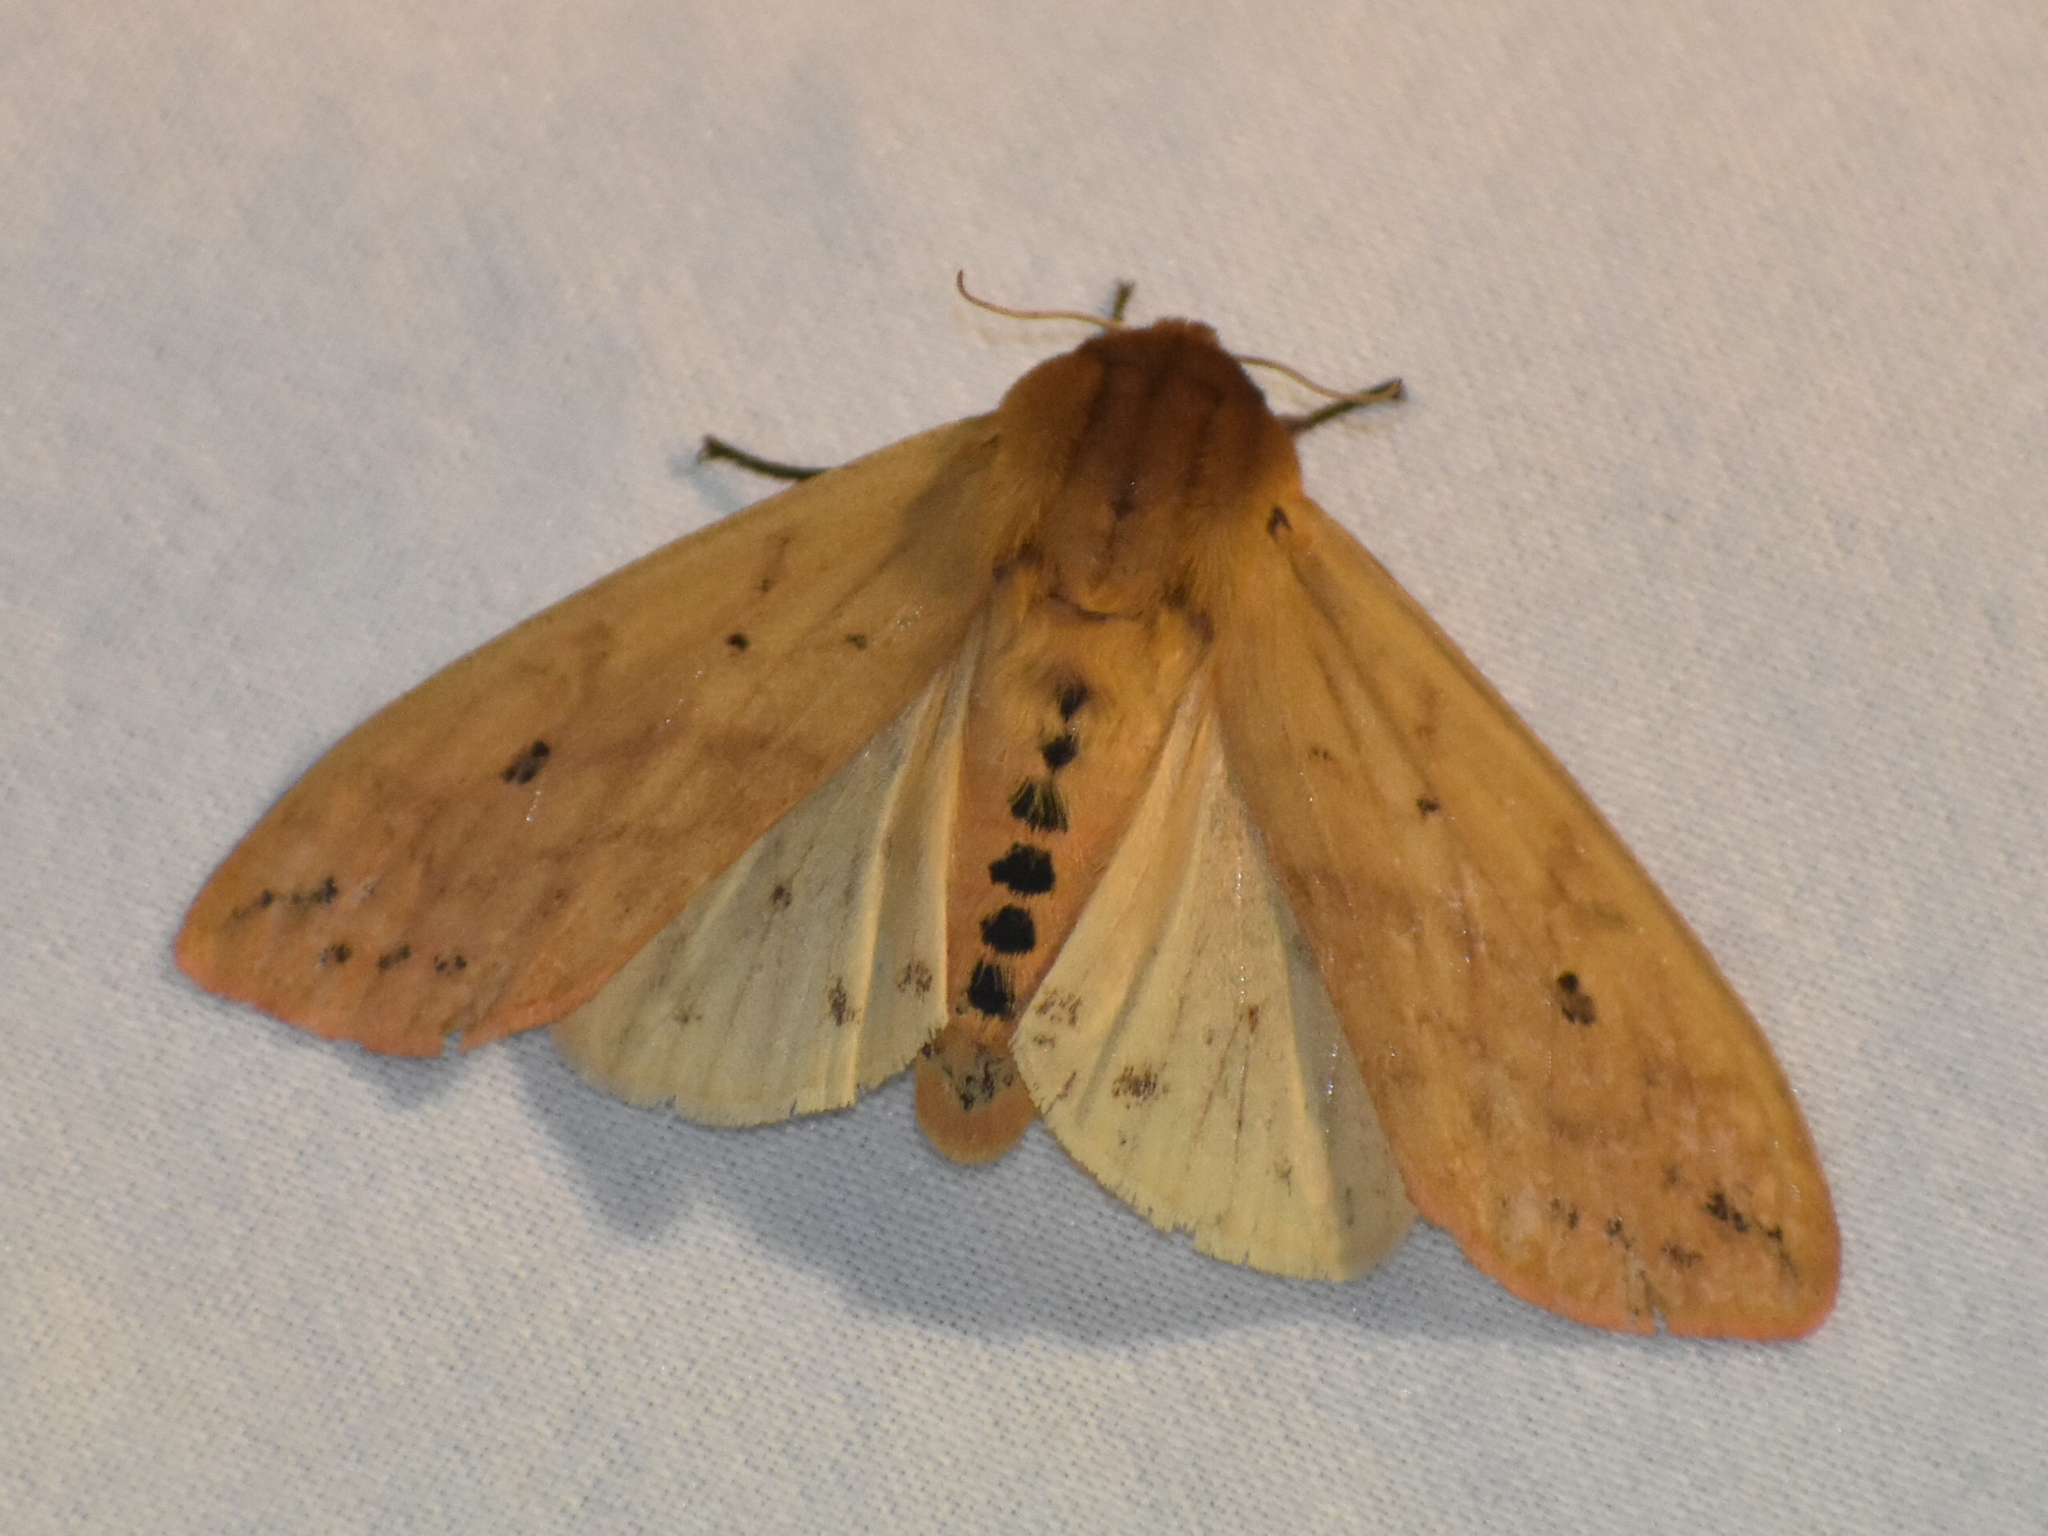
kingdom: Animalia
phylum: Arthropoda
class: Insecta
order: Lepidoptera
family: Erebidae
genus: Pyrrharctia
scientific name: Pyrrharctia isabella
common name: Isabella tiger moth
